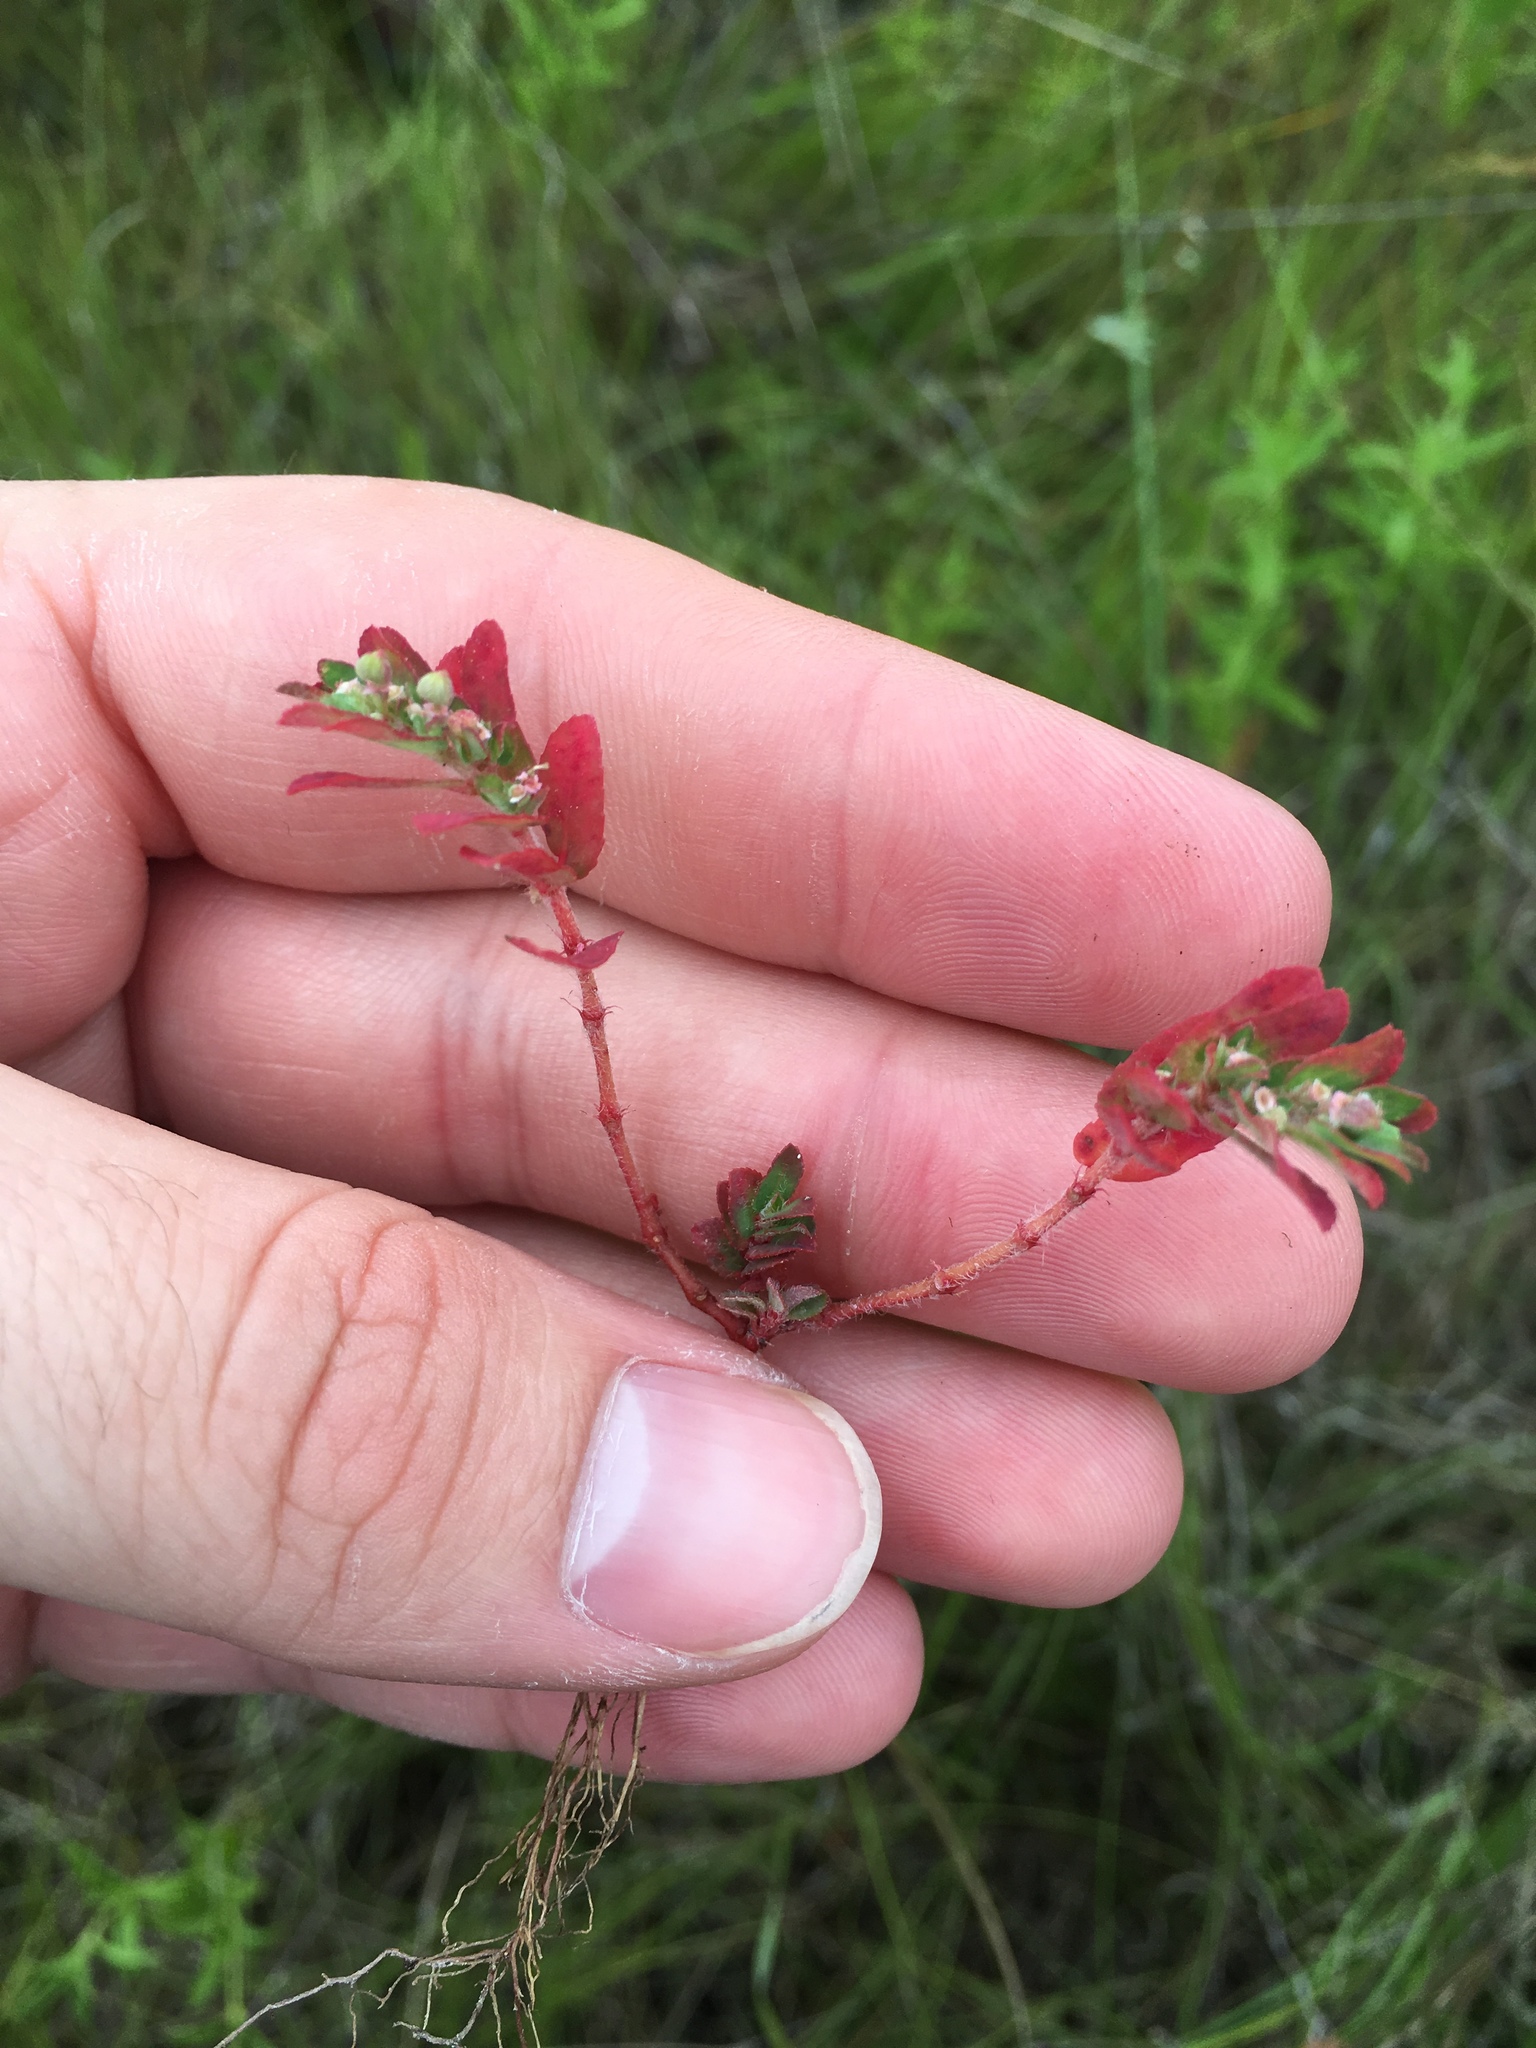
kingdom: Plantae
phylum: Tracheophyta
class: Magnoliopsida
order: Malpighiales
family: Euphorbiaceae
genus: Euphorbia
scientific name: Euphorbia maculata
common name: Spotted spurge
